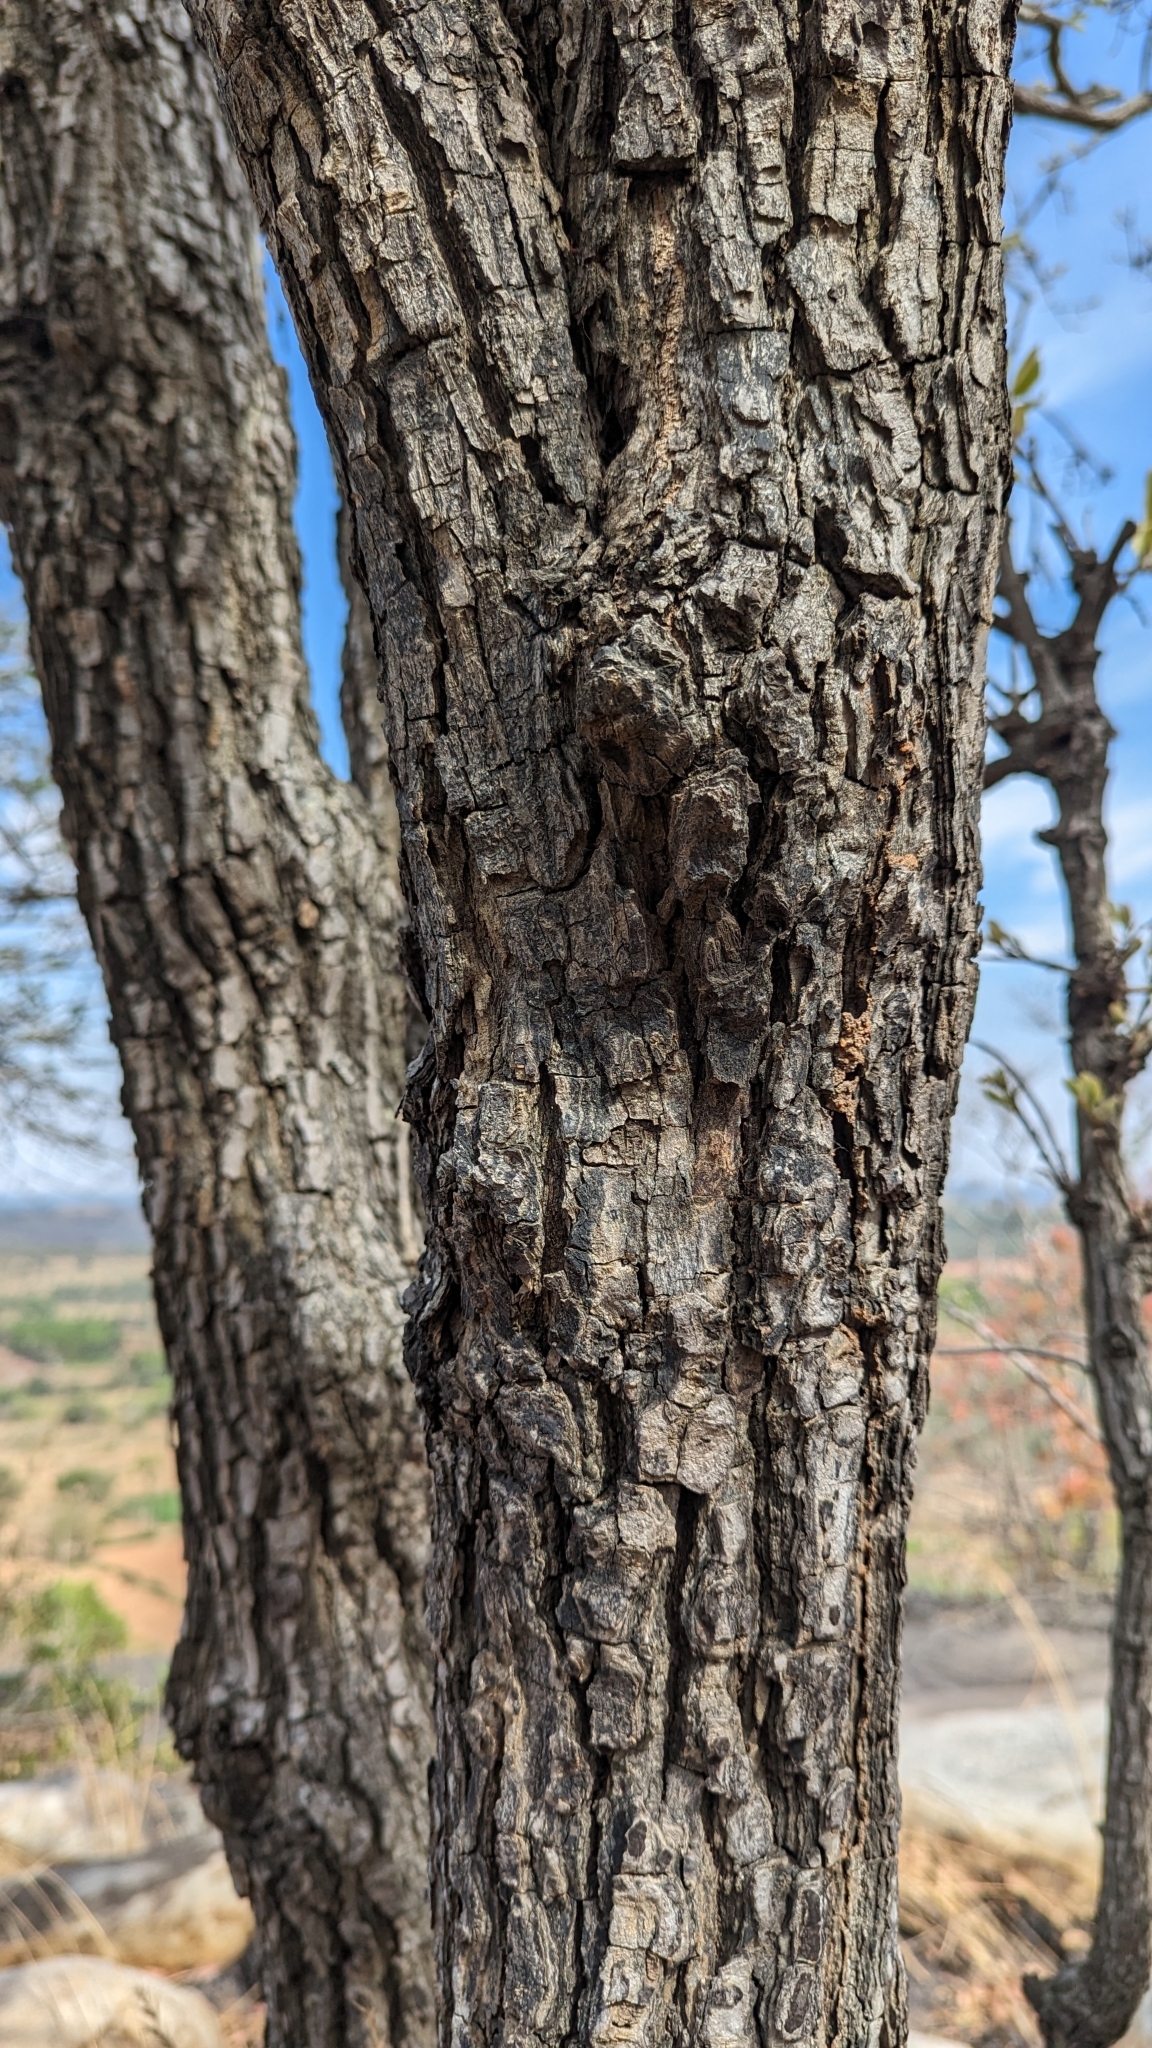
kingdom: Plantae
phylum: Tracheophyta
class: Magnoliopsida
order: Ericales
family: Ebenaceae
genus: Diospyros
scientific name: Diospyros melanoxylon
